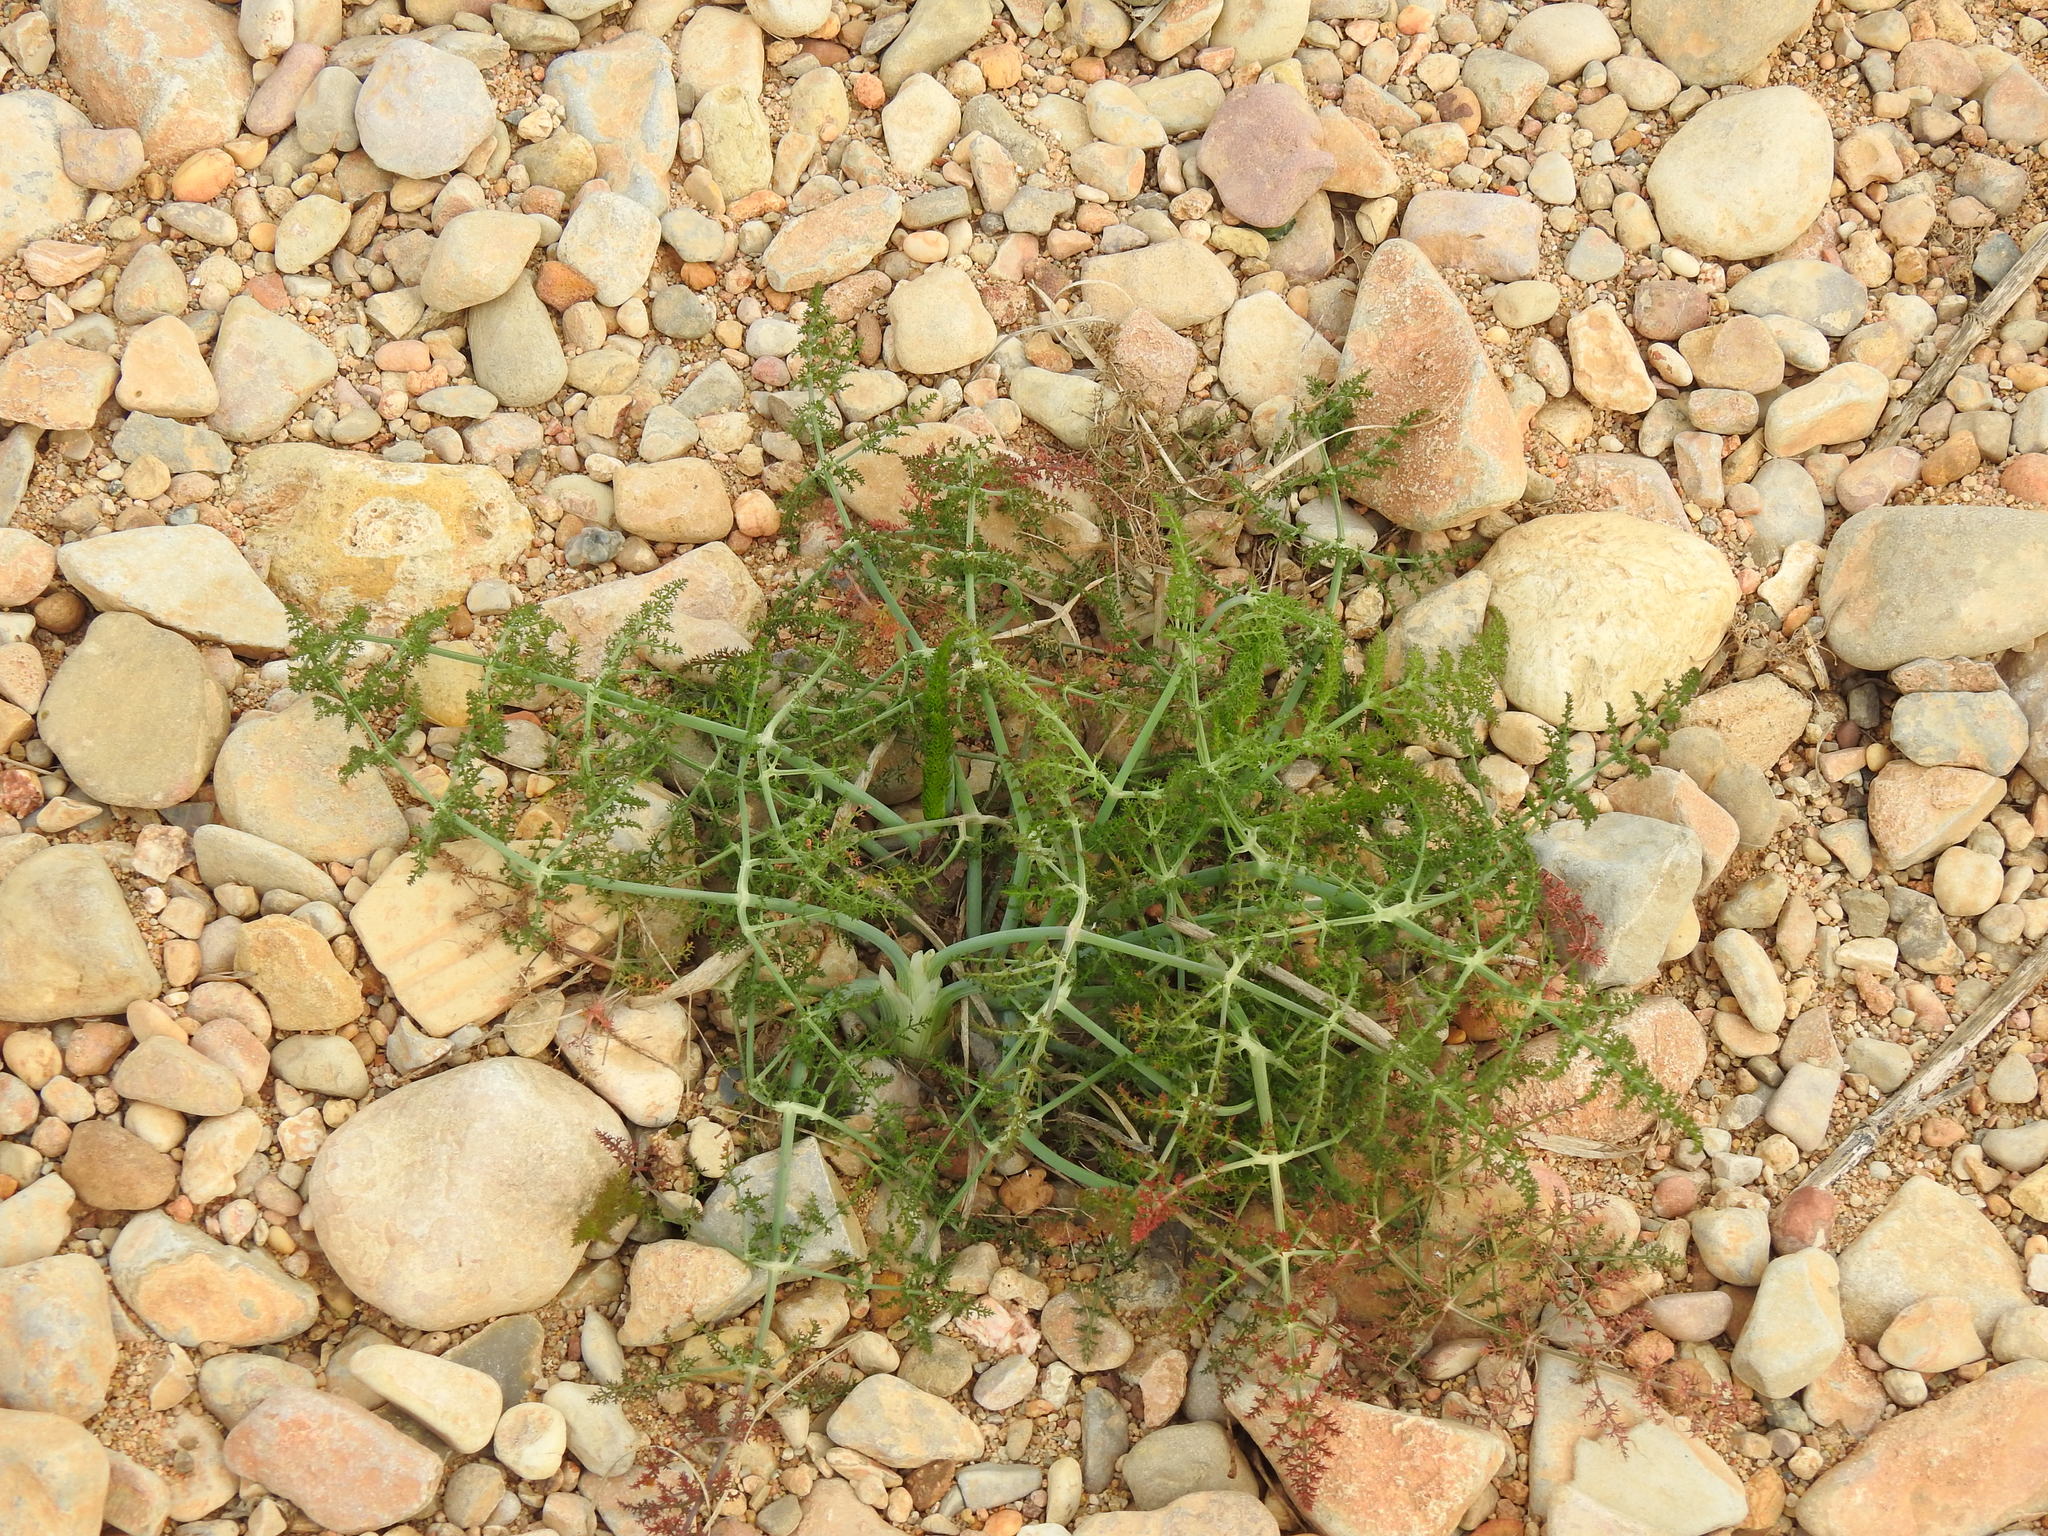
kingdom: Plantae
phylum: Tracheophyta
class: Magnoliopsida
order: Apiales
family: Apiaceae
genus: Foeniculum
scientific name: Foeniculum vulgare
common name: Fennel
